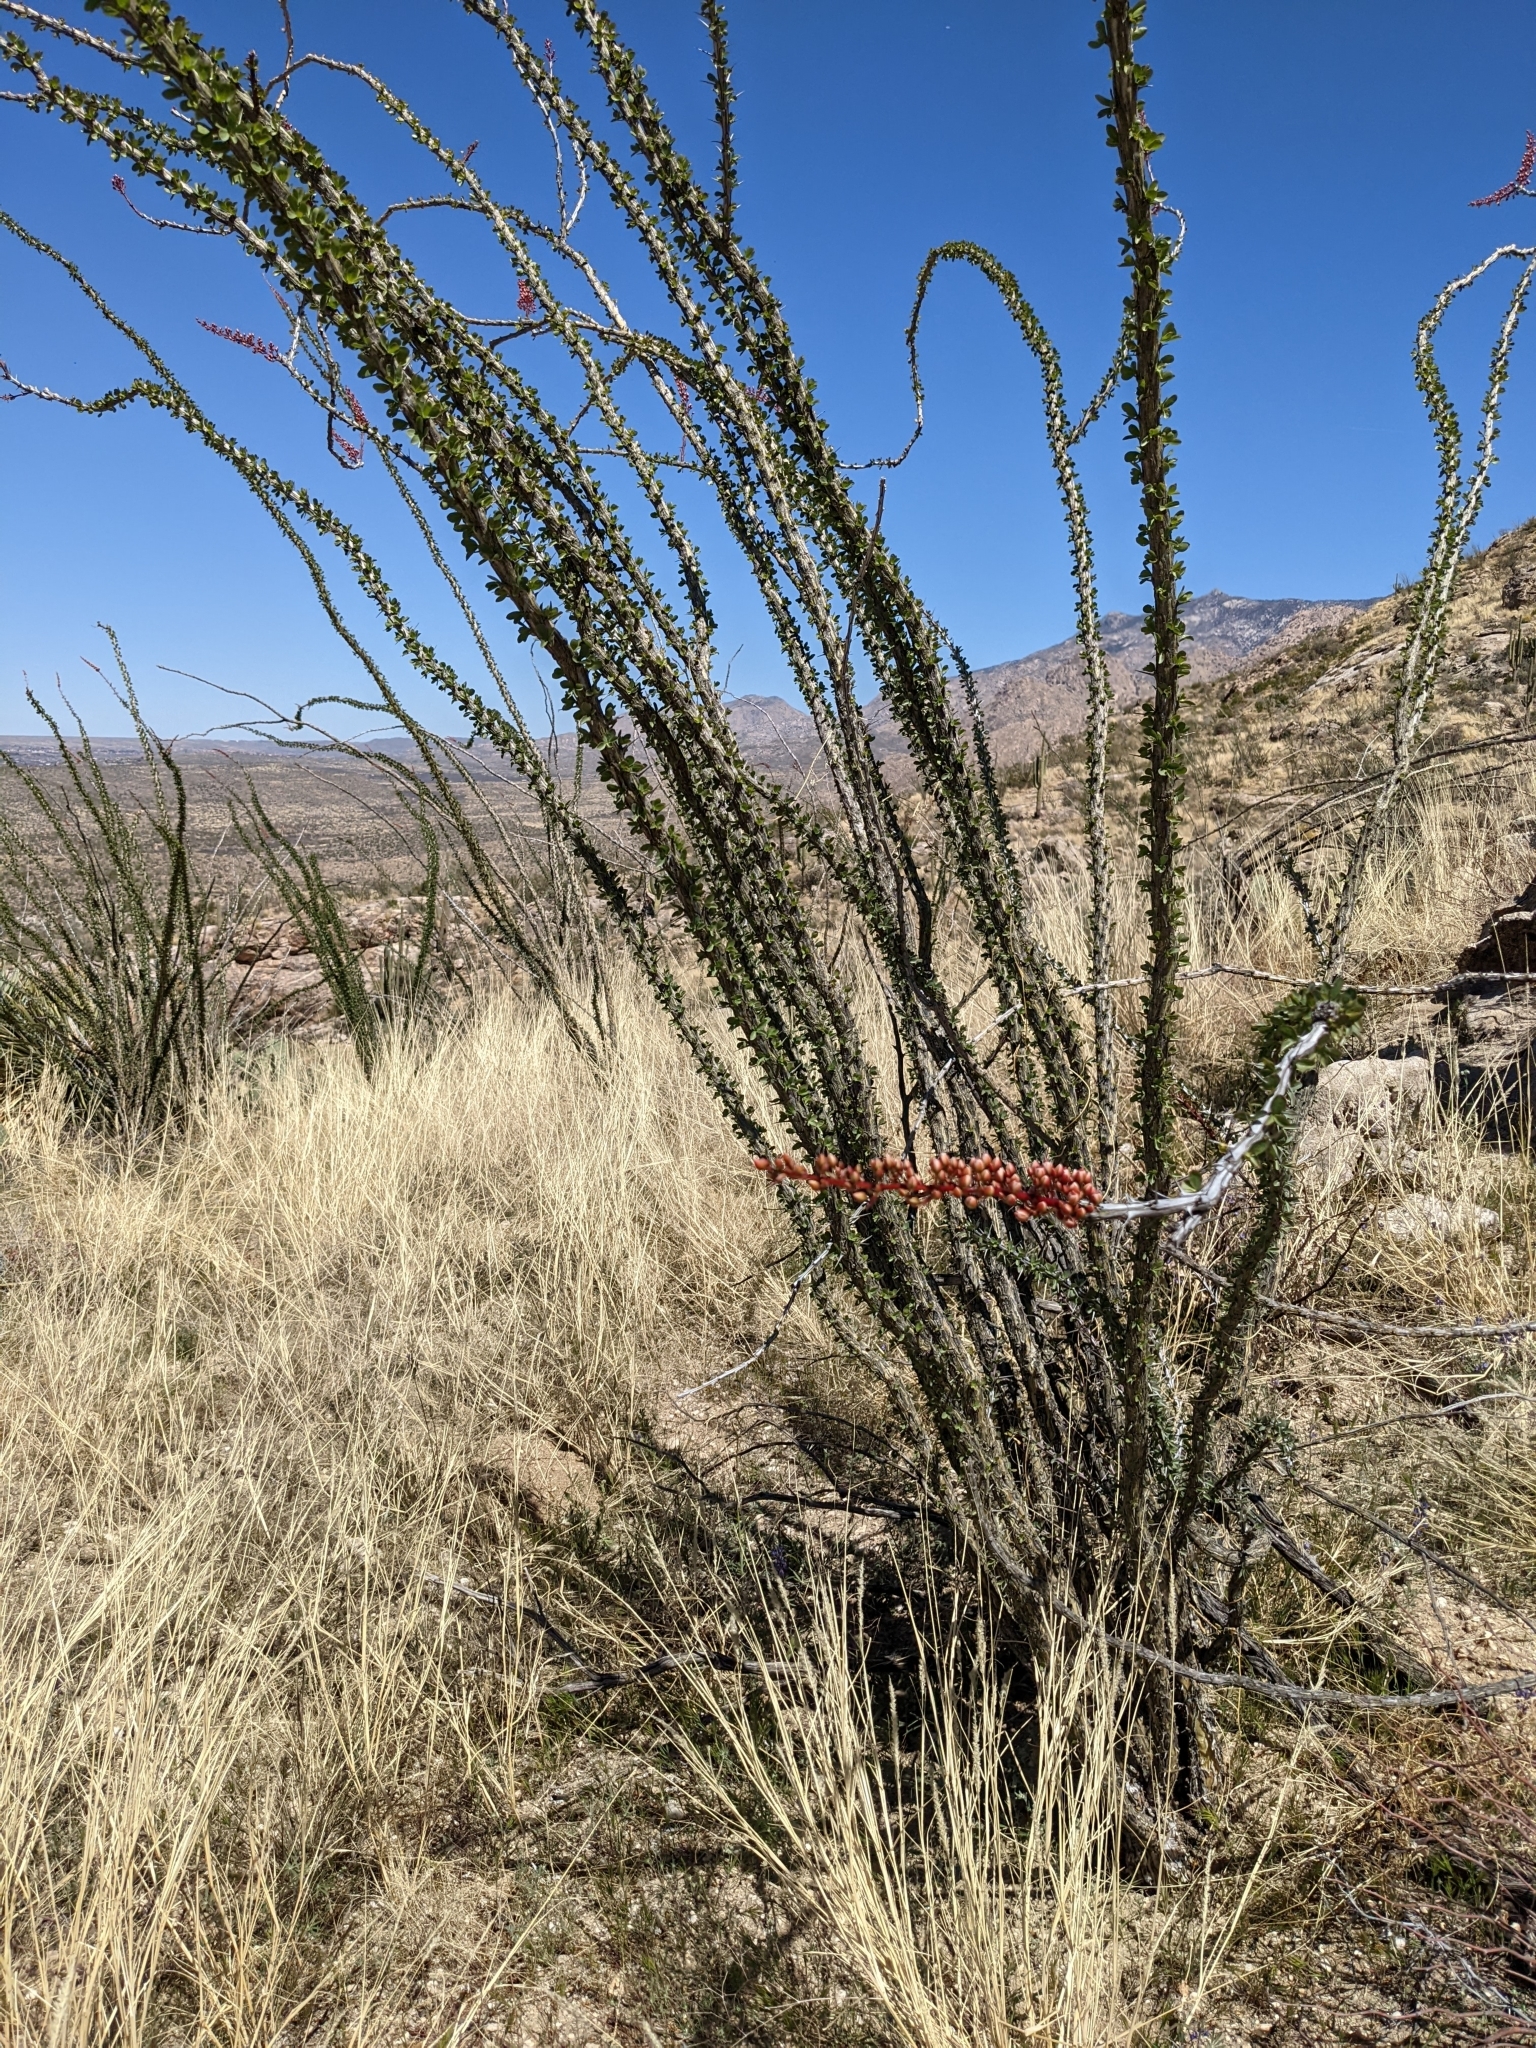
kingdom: Plantae
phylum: Tracheophyta
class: Magnoliopsida
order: Ericales
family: Fouquieriaceae
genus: Fouquieria
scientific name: Fouquieria splendens
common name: Vine-cactus
